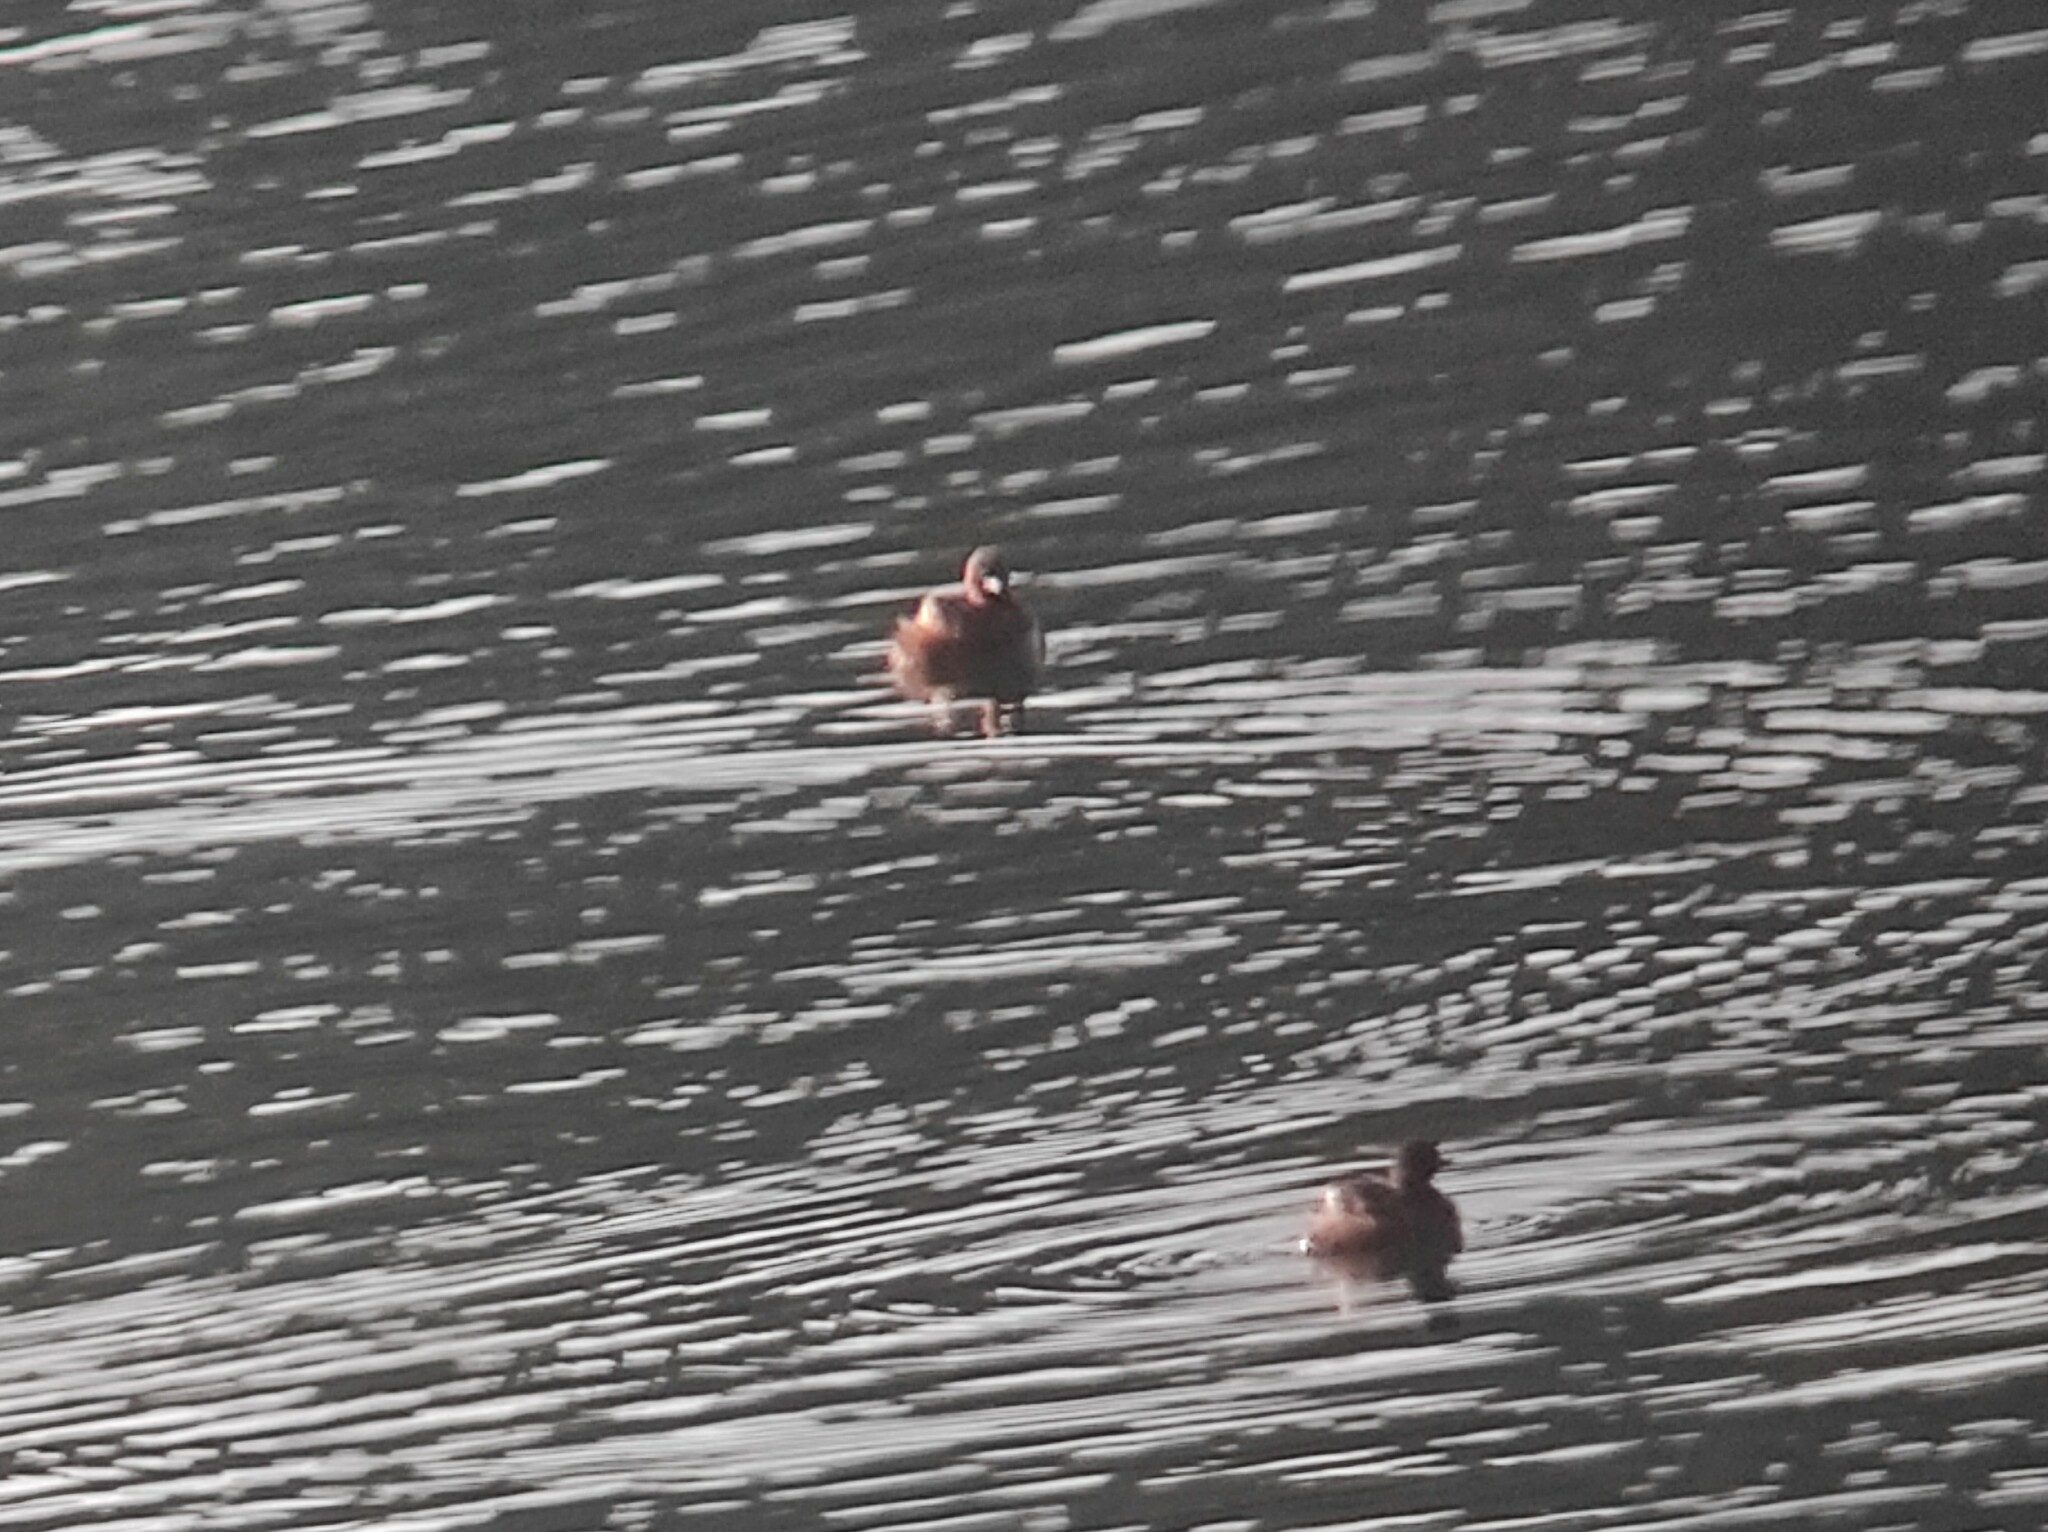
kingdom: Animalia
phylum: Chordata
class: Aves
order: Podicipediformes
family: Podicipedidae
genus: Tachybaptus
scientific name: Tachybaptus ruficollis
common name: Little grebe
